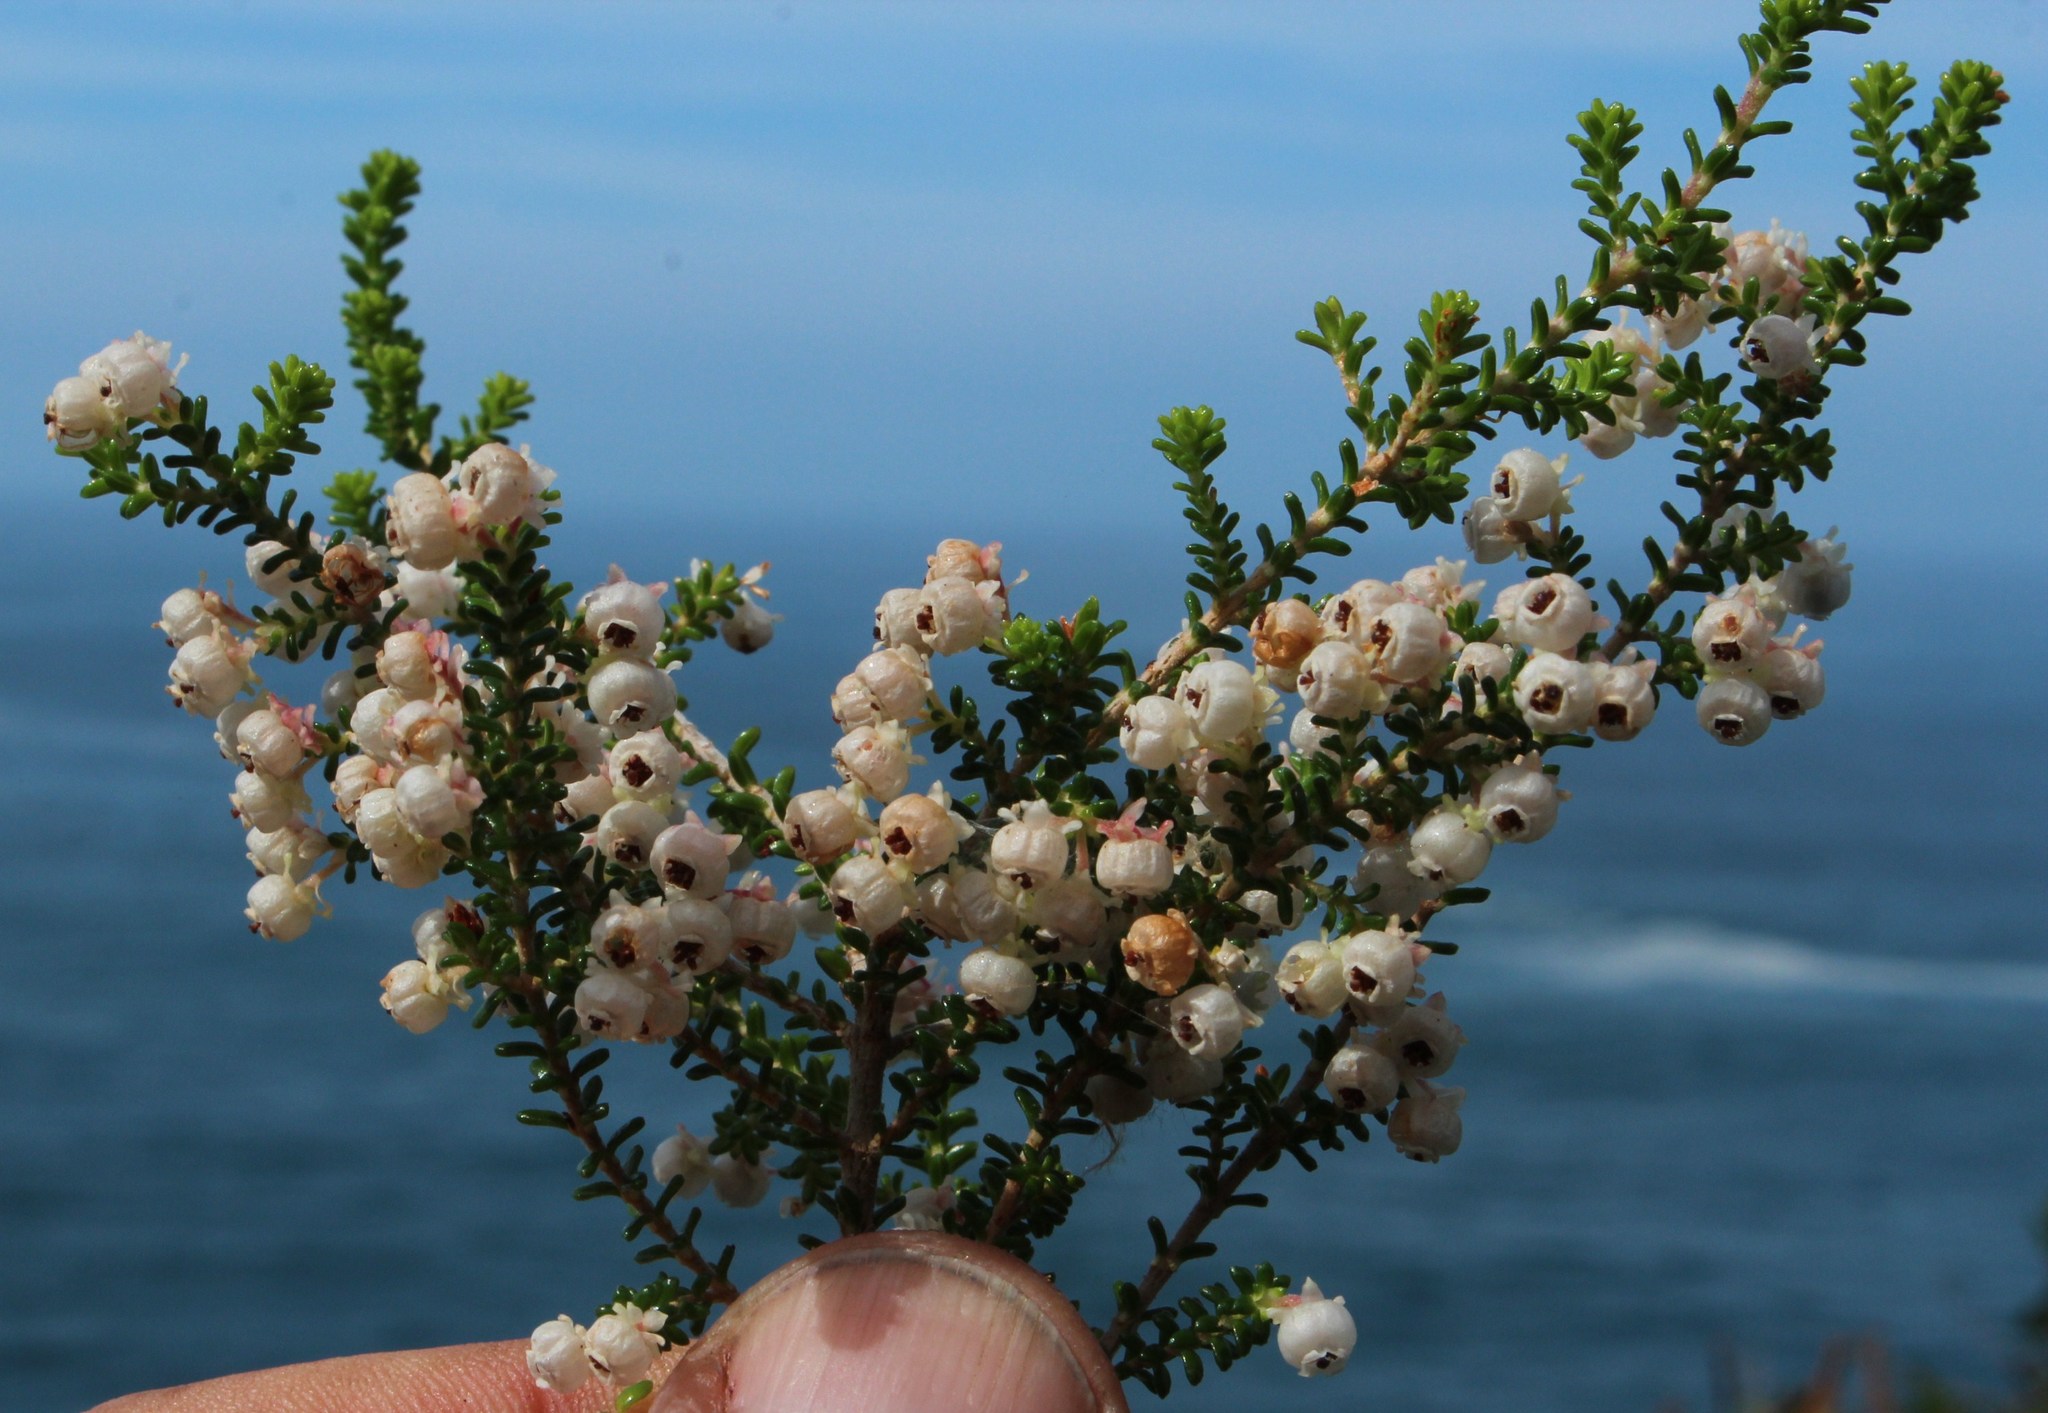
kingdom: Plantae
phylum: Tracheophyta
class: Magnoliopsida
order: Ericales
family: Ericaceae
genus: Erica
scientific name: Erica formosa
